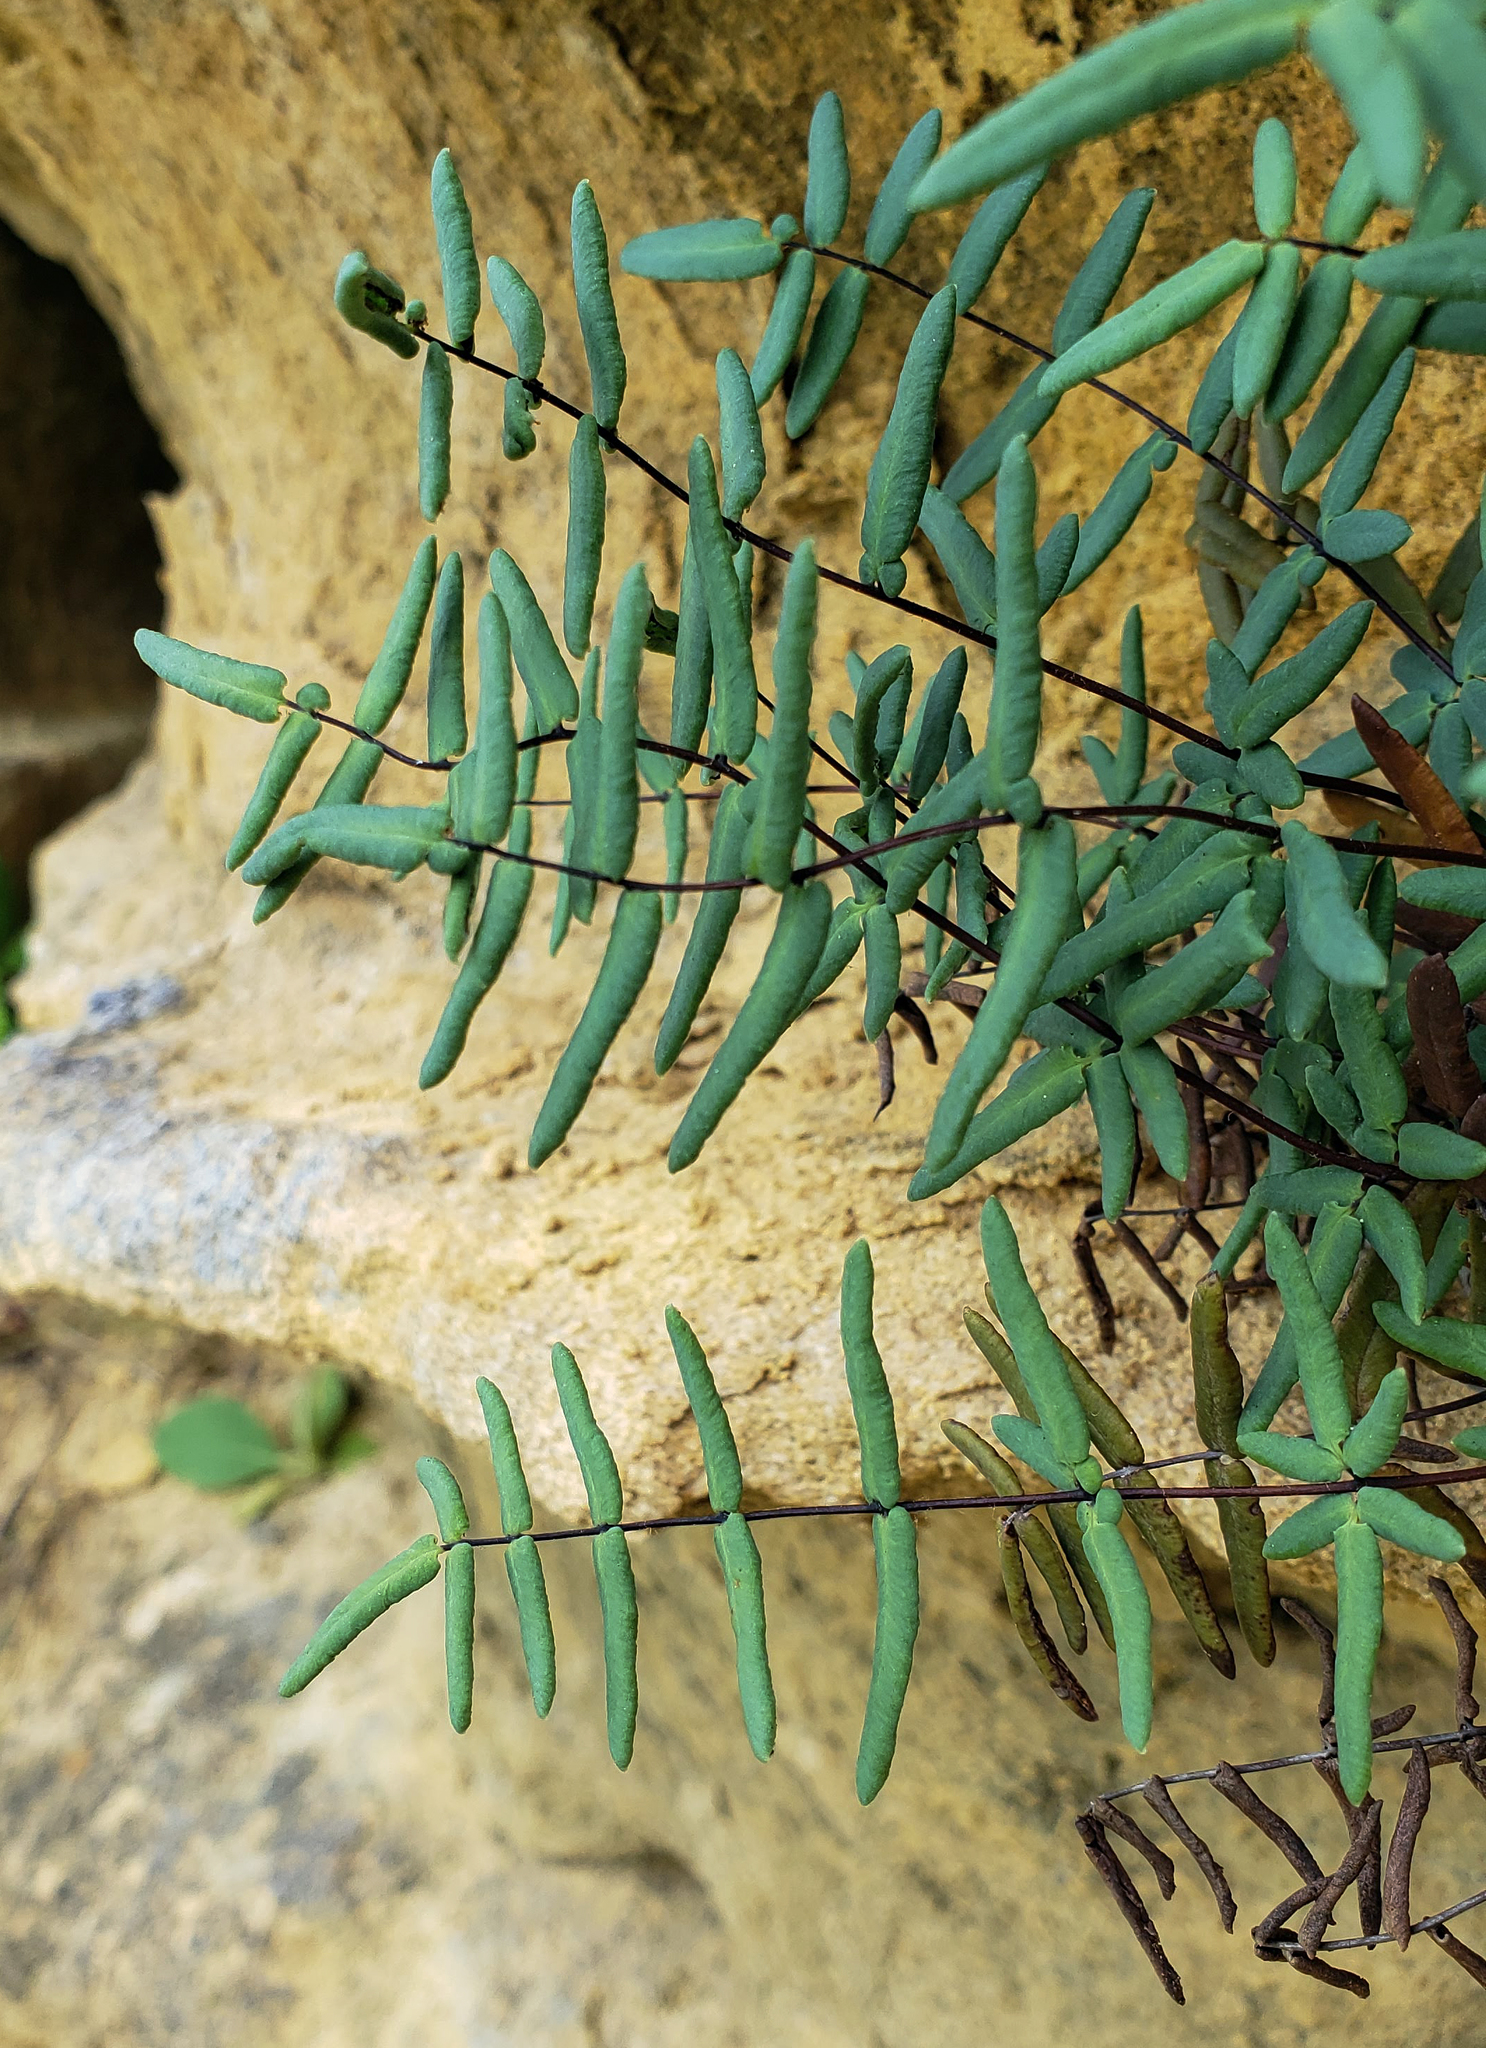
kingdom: Plantae
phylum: Tracheophyta
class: Polypodiopsida
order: Polypodiales
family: Pteridaceae
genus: Pellaea
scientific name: Pellaea glabella
